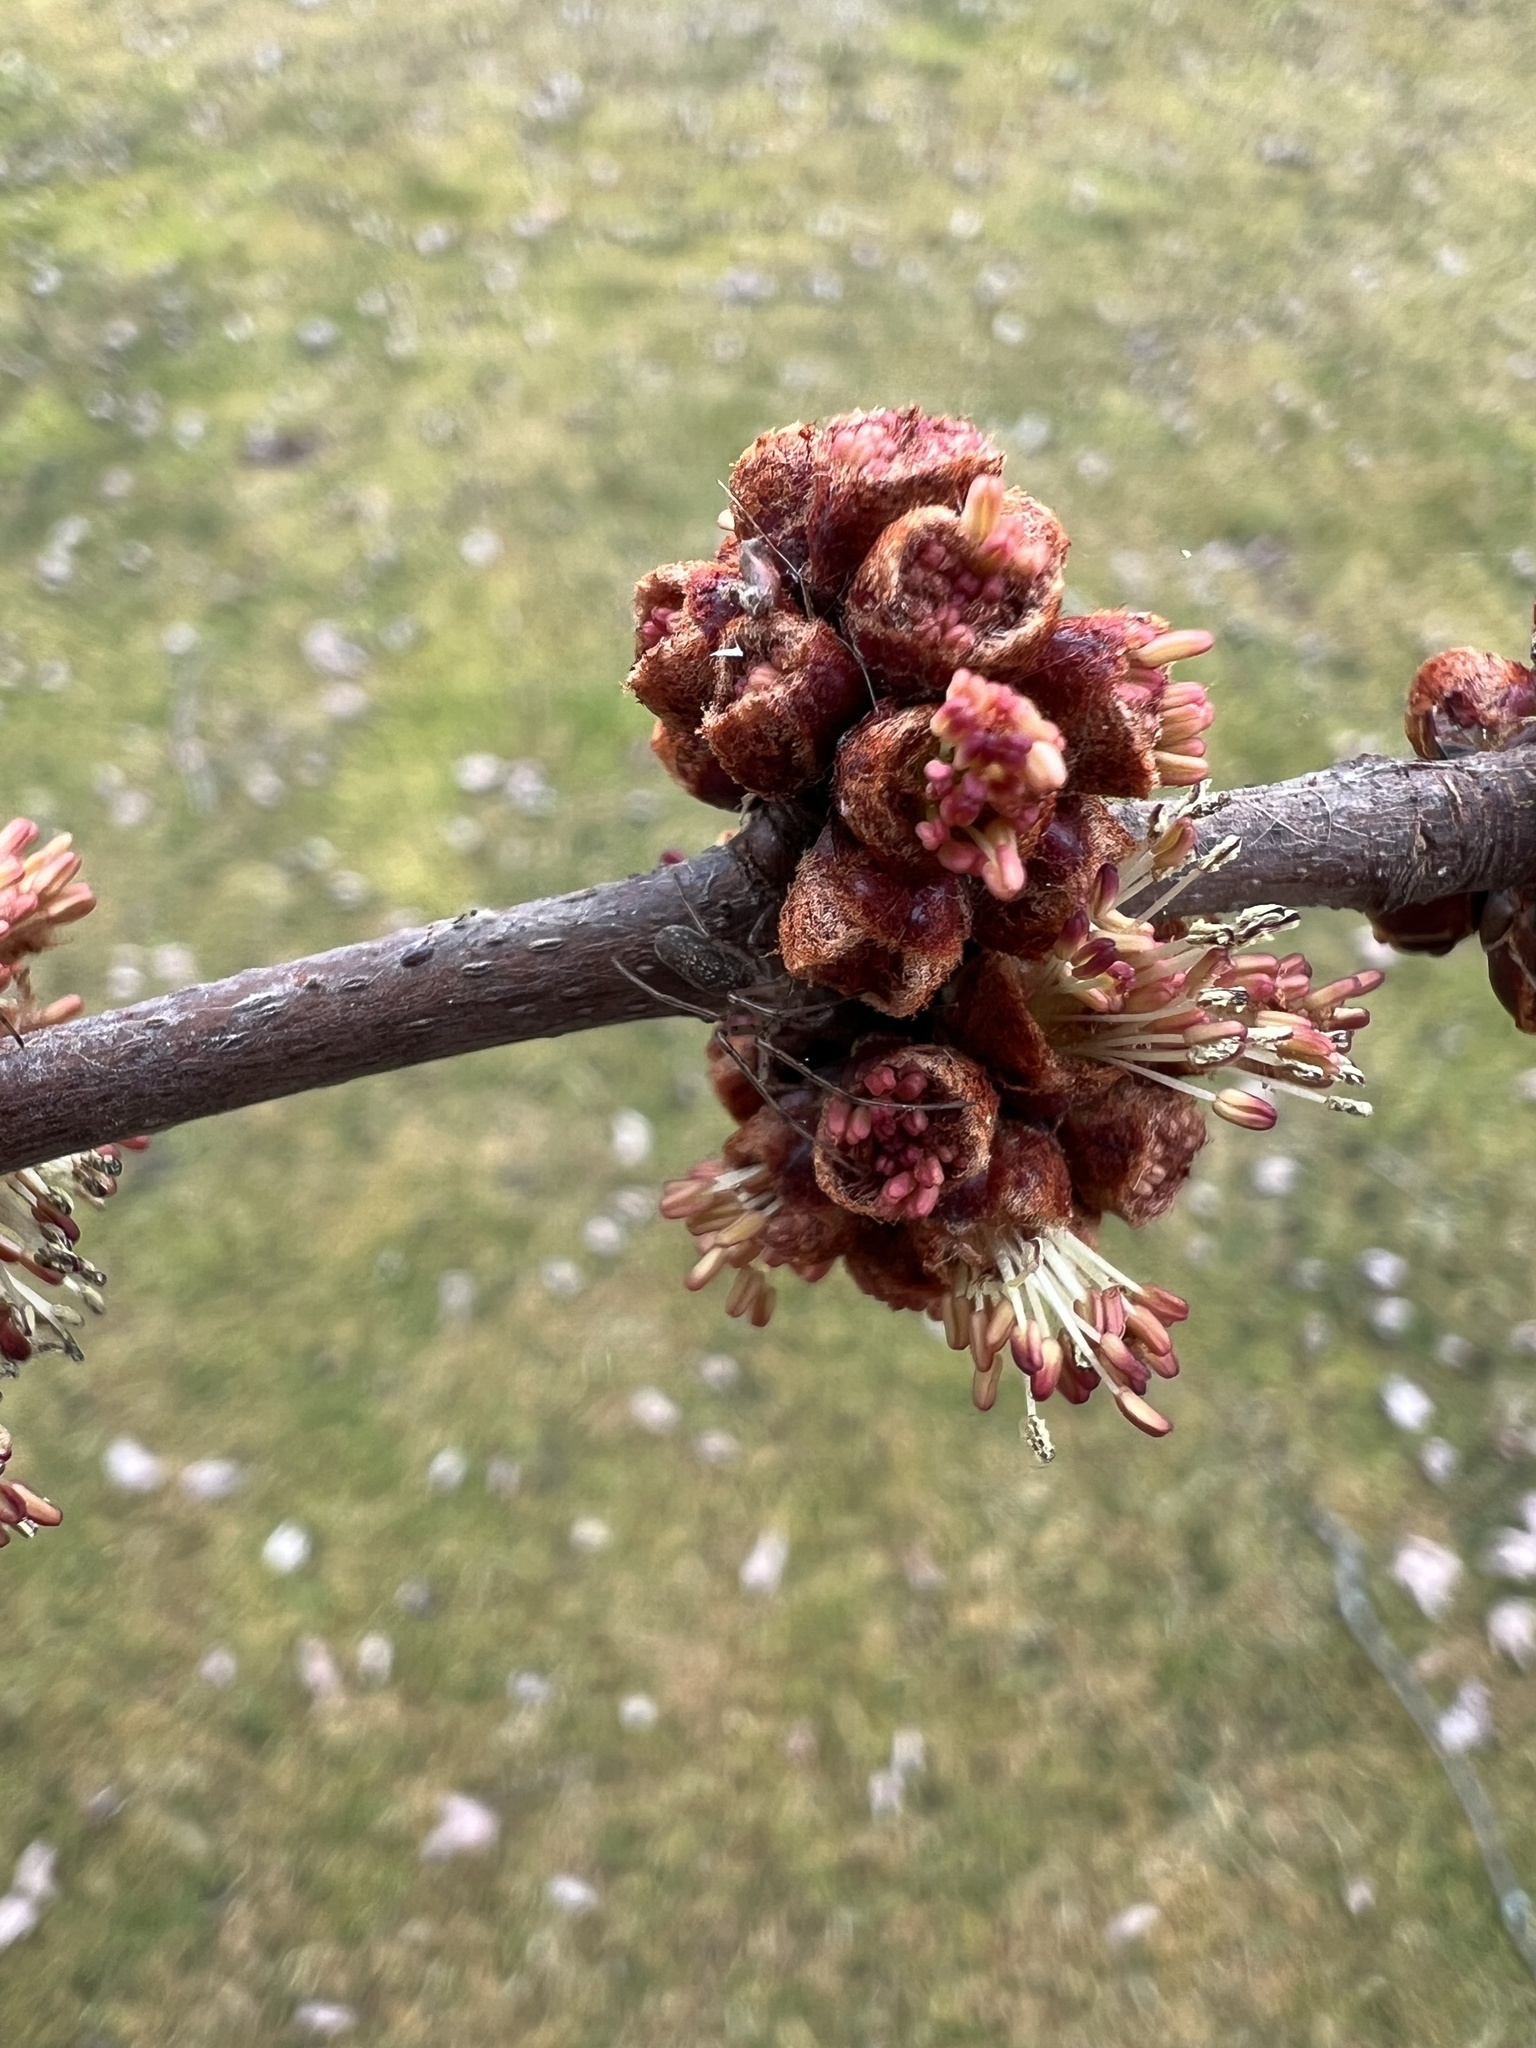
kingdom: Plantae
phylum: Tracheophyta
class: Magnoliopsida
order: Sapindales
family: Sapindaceae
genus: Acer
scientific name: Acer saccharinum
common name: Silver maple
